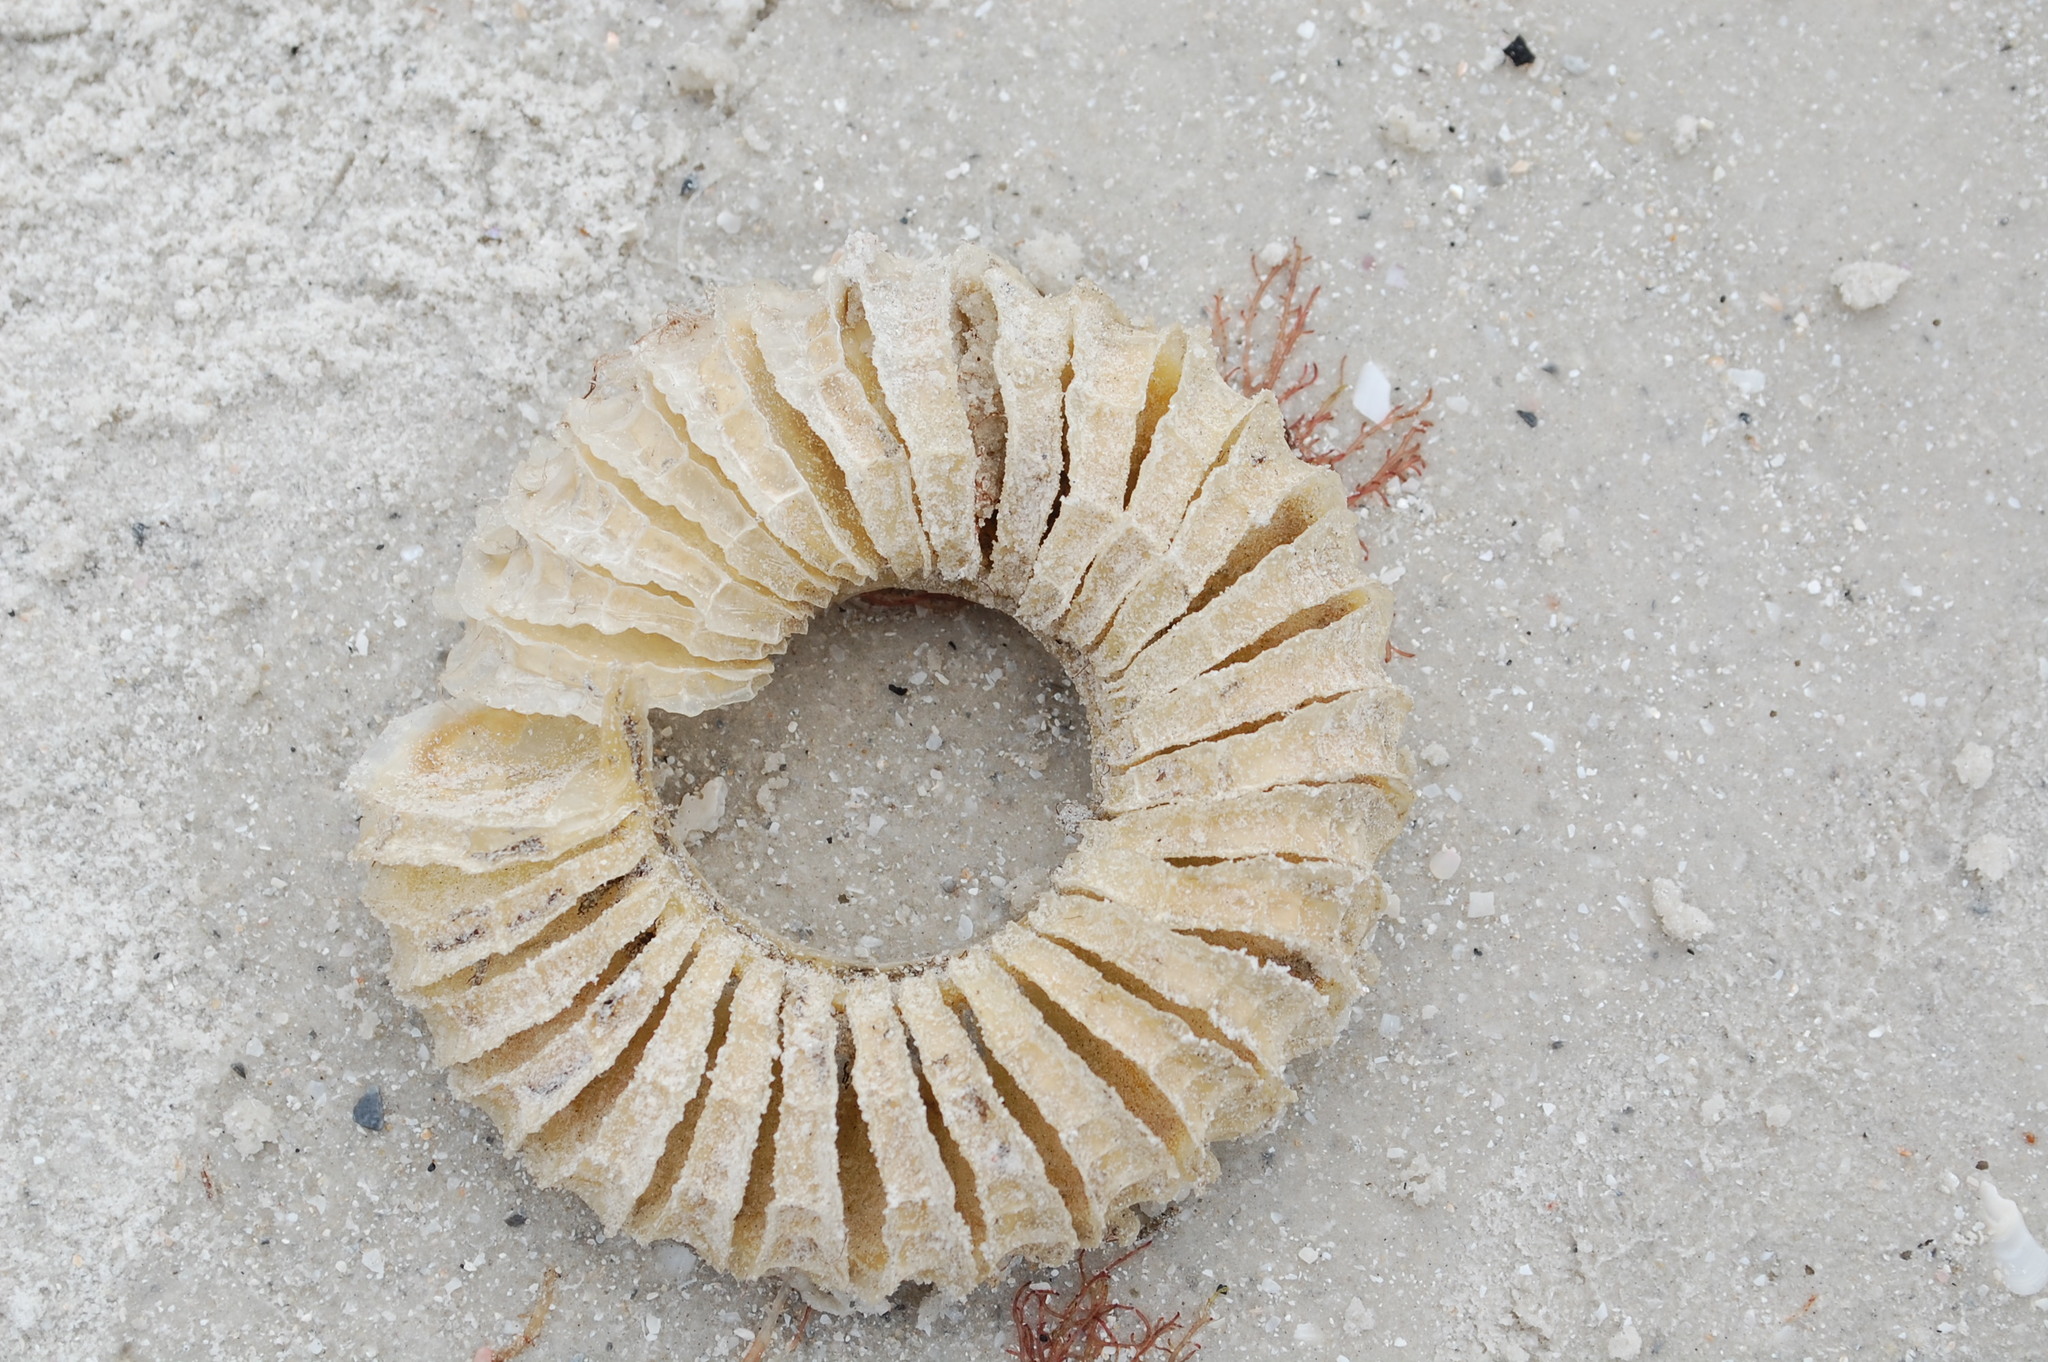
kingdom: Animalia
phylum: Mollusca
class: Gastropoda
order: Neogastropoda
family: Busyconidae
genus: Sinistrofulgur
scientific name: Sinistrofulgur sinistrum
